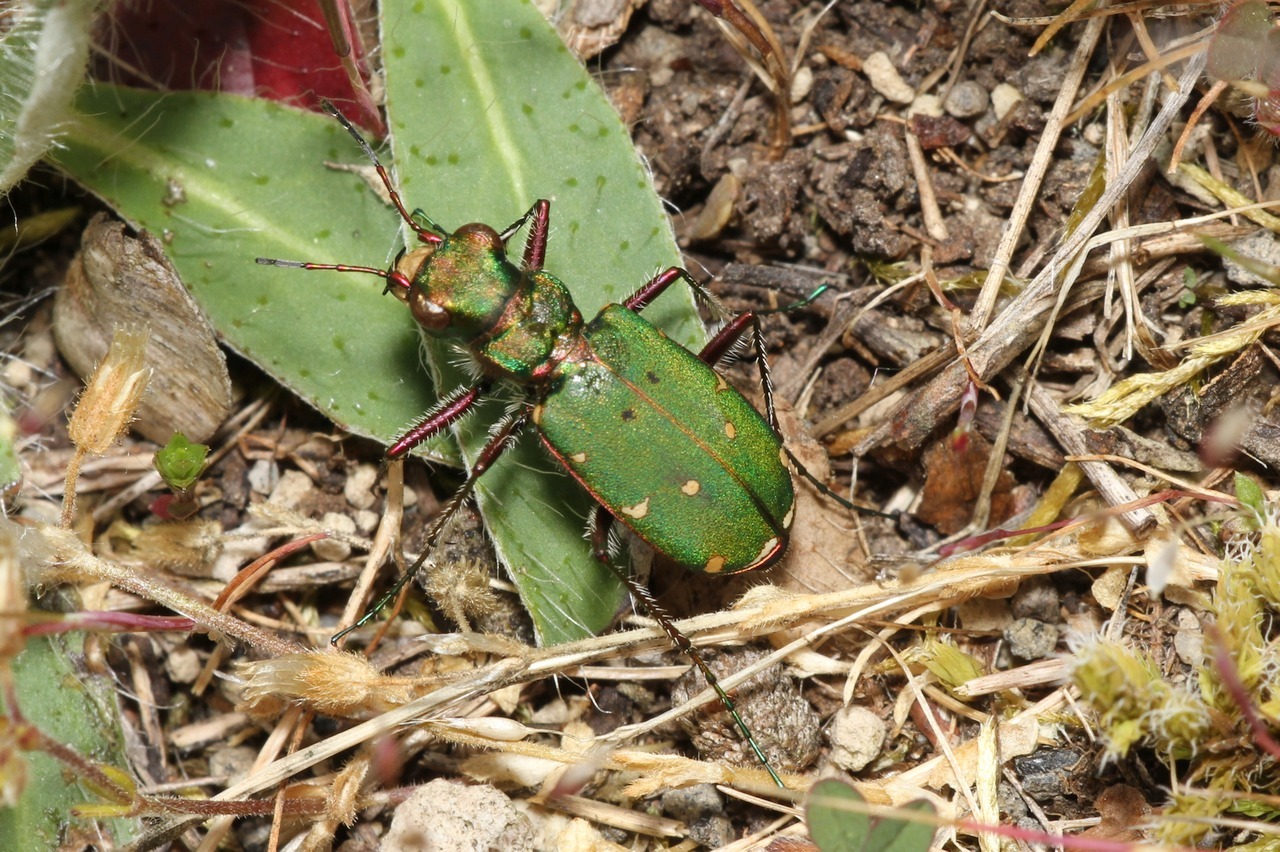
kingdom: Animalia
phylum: Arthropoda
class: Insecta
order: Coleoptera
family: Carabidae
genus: Cicindela
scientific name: Cicindela campestris
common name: Common tiger beetle
